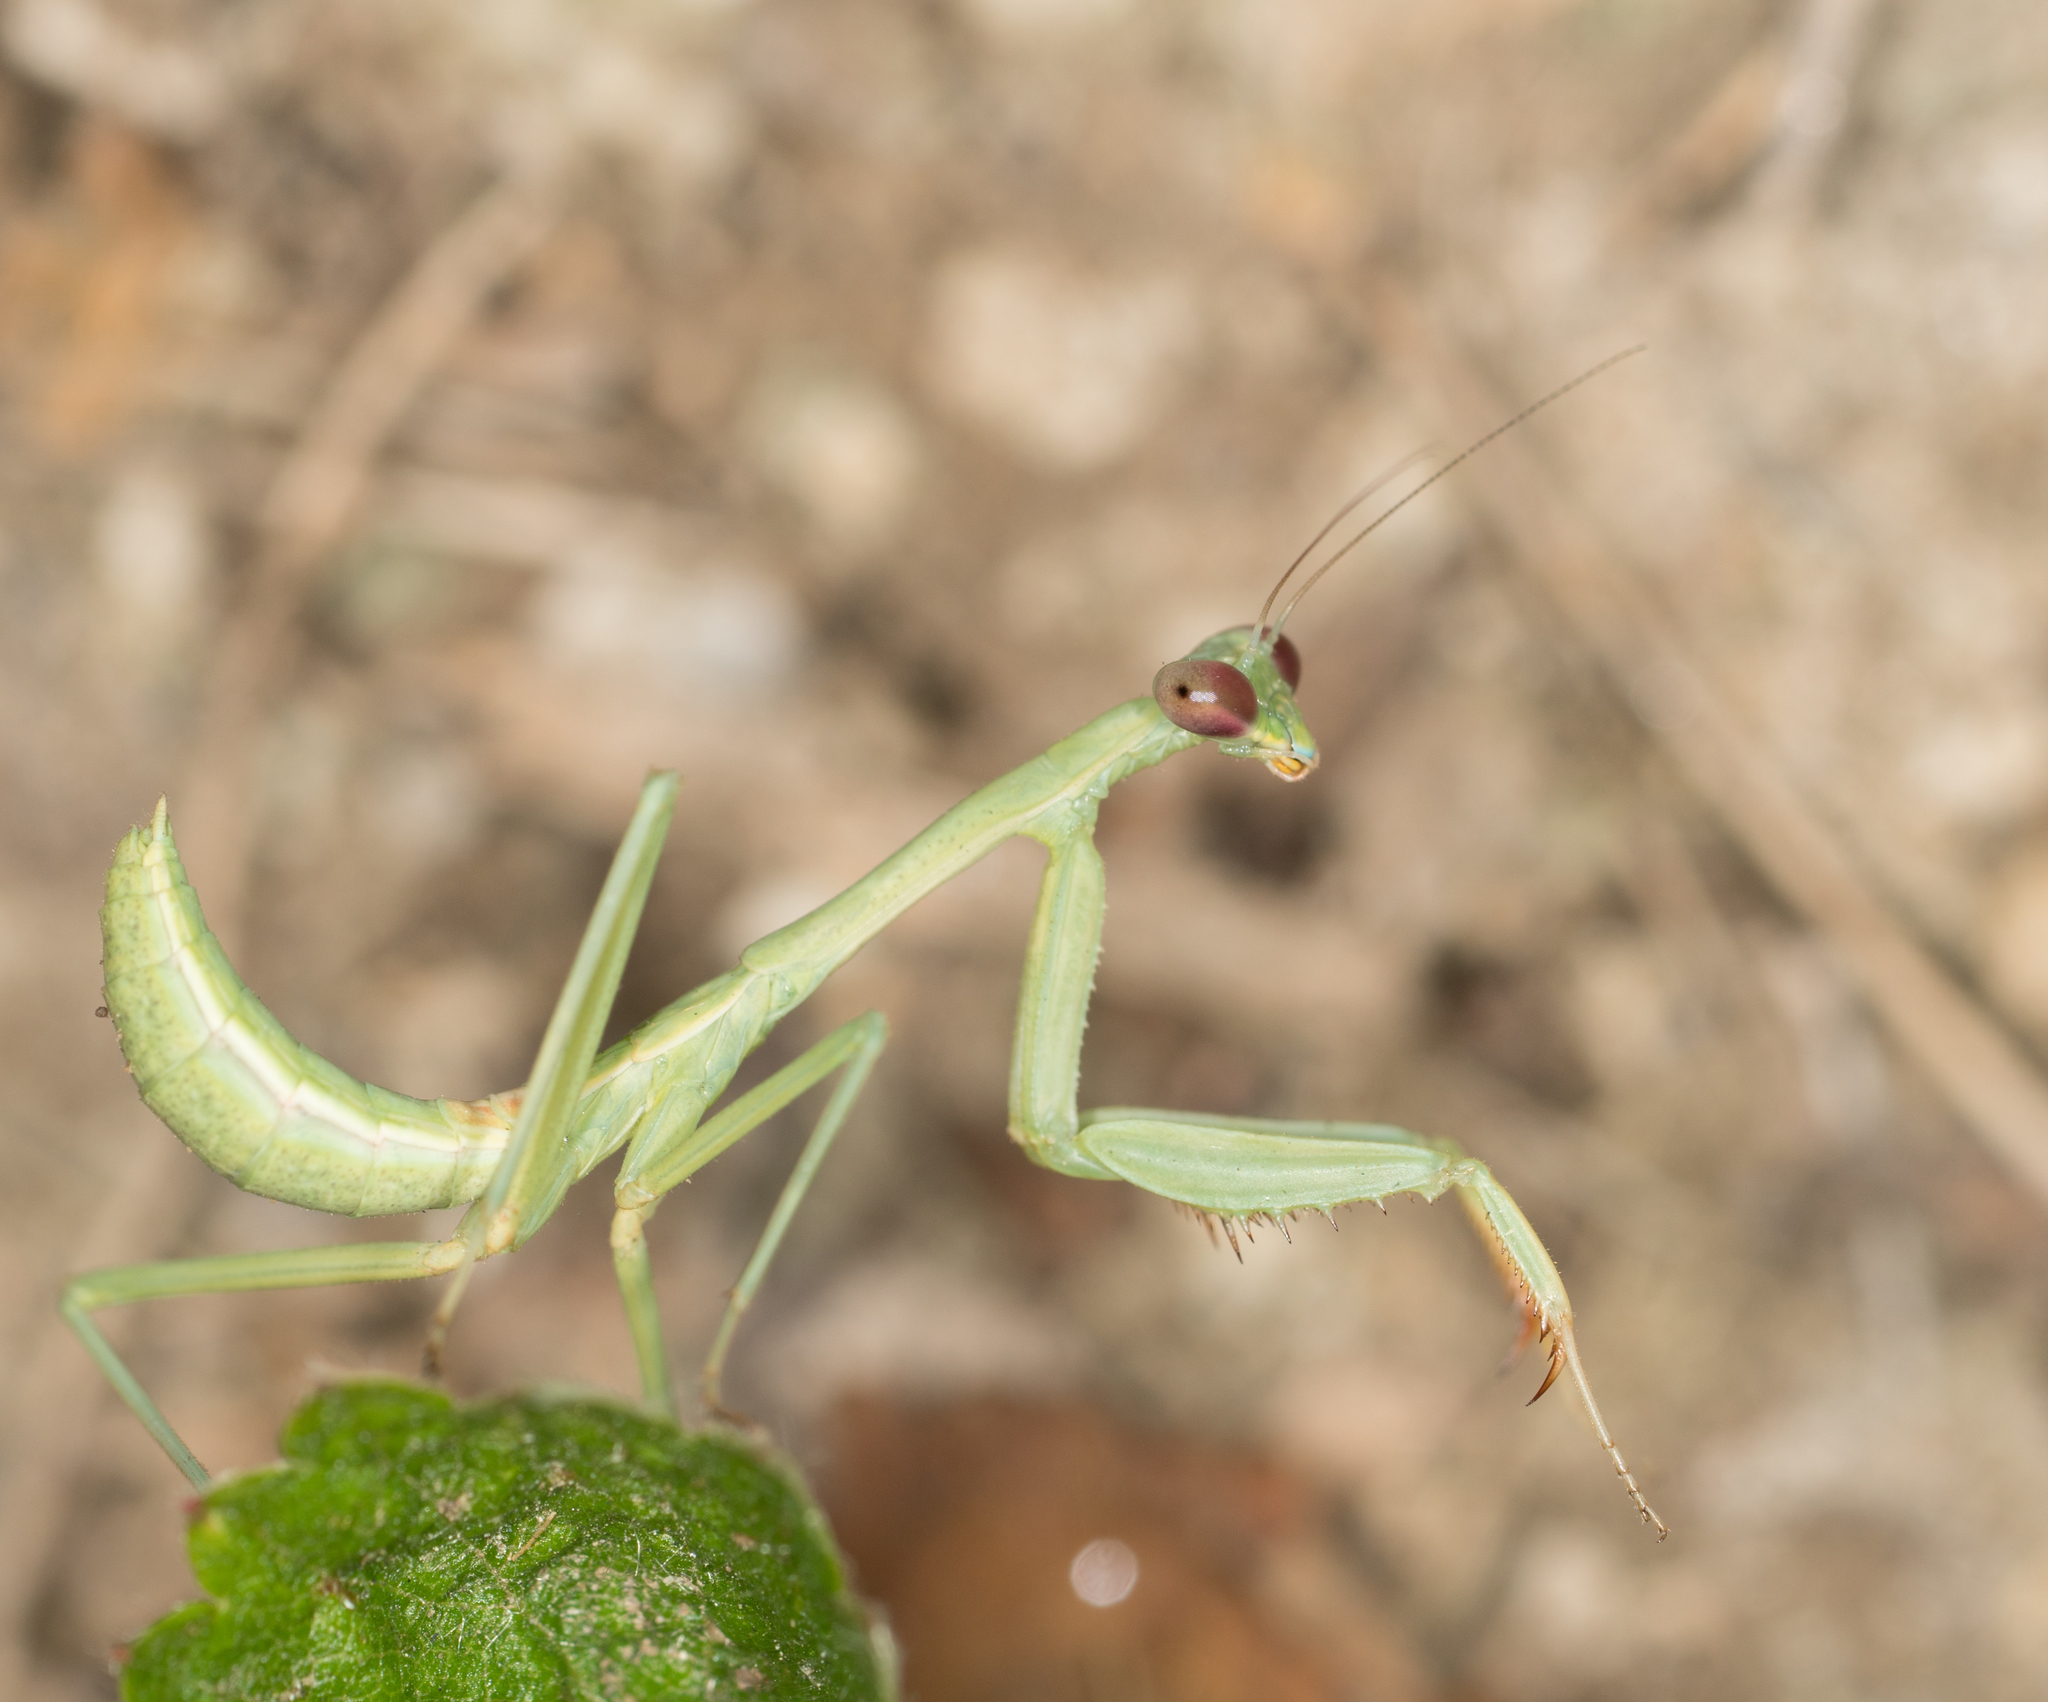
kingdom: Animalia
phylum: Arthropoda
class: Insecta
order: Mantodea
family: Mantidae
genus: Stagmomantis
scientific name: Stagmomantis limbata
